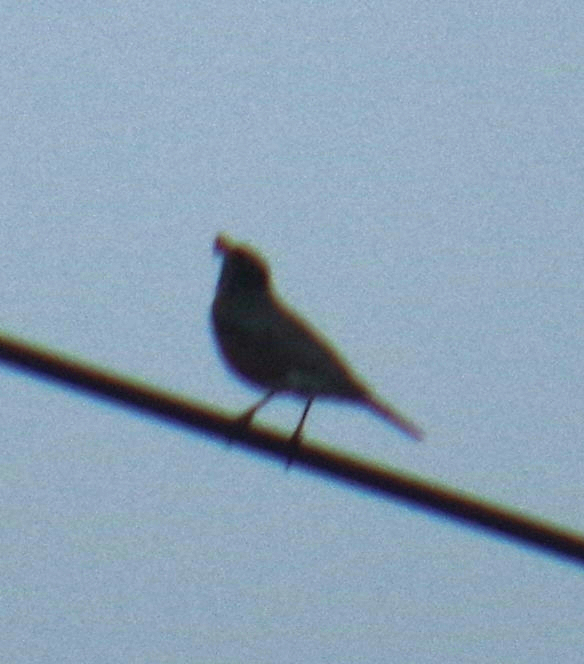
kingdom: Animalia
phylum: Chordata
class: Aves
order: Passeriformes
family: Turdidae
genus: Turdus
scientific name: Turdus migratorius
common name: American robin
